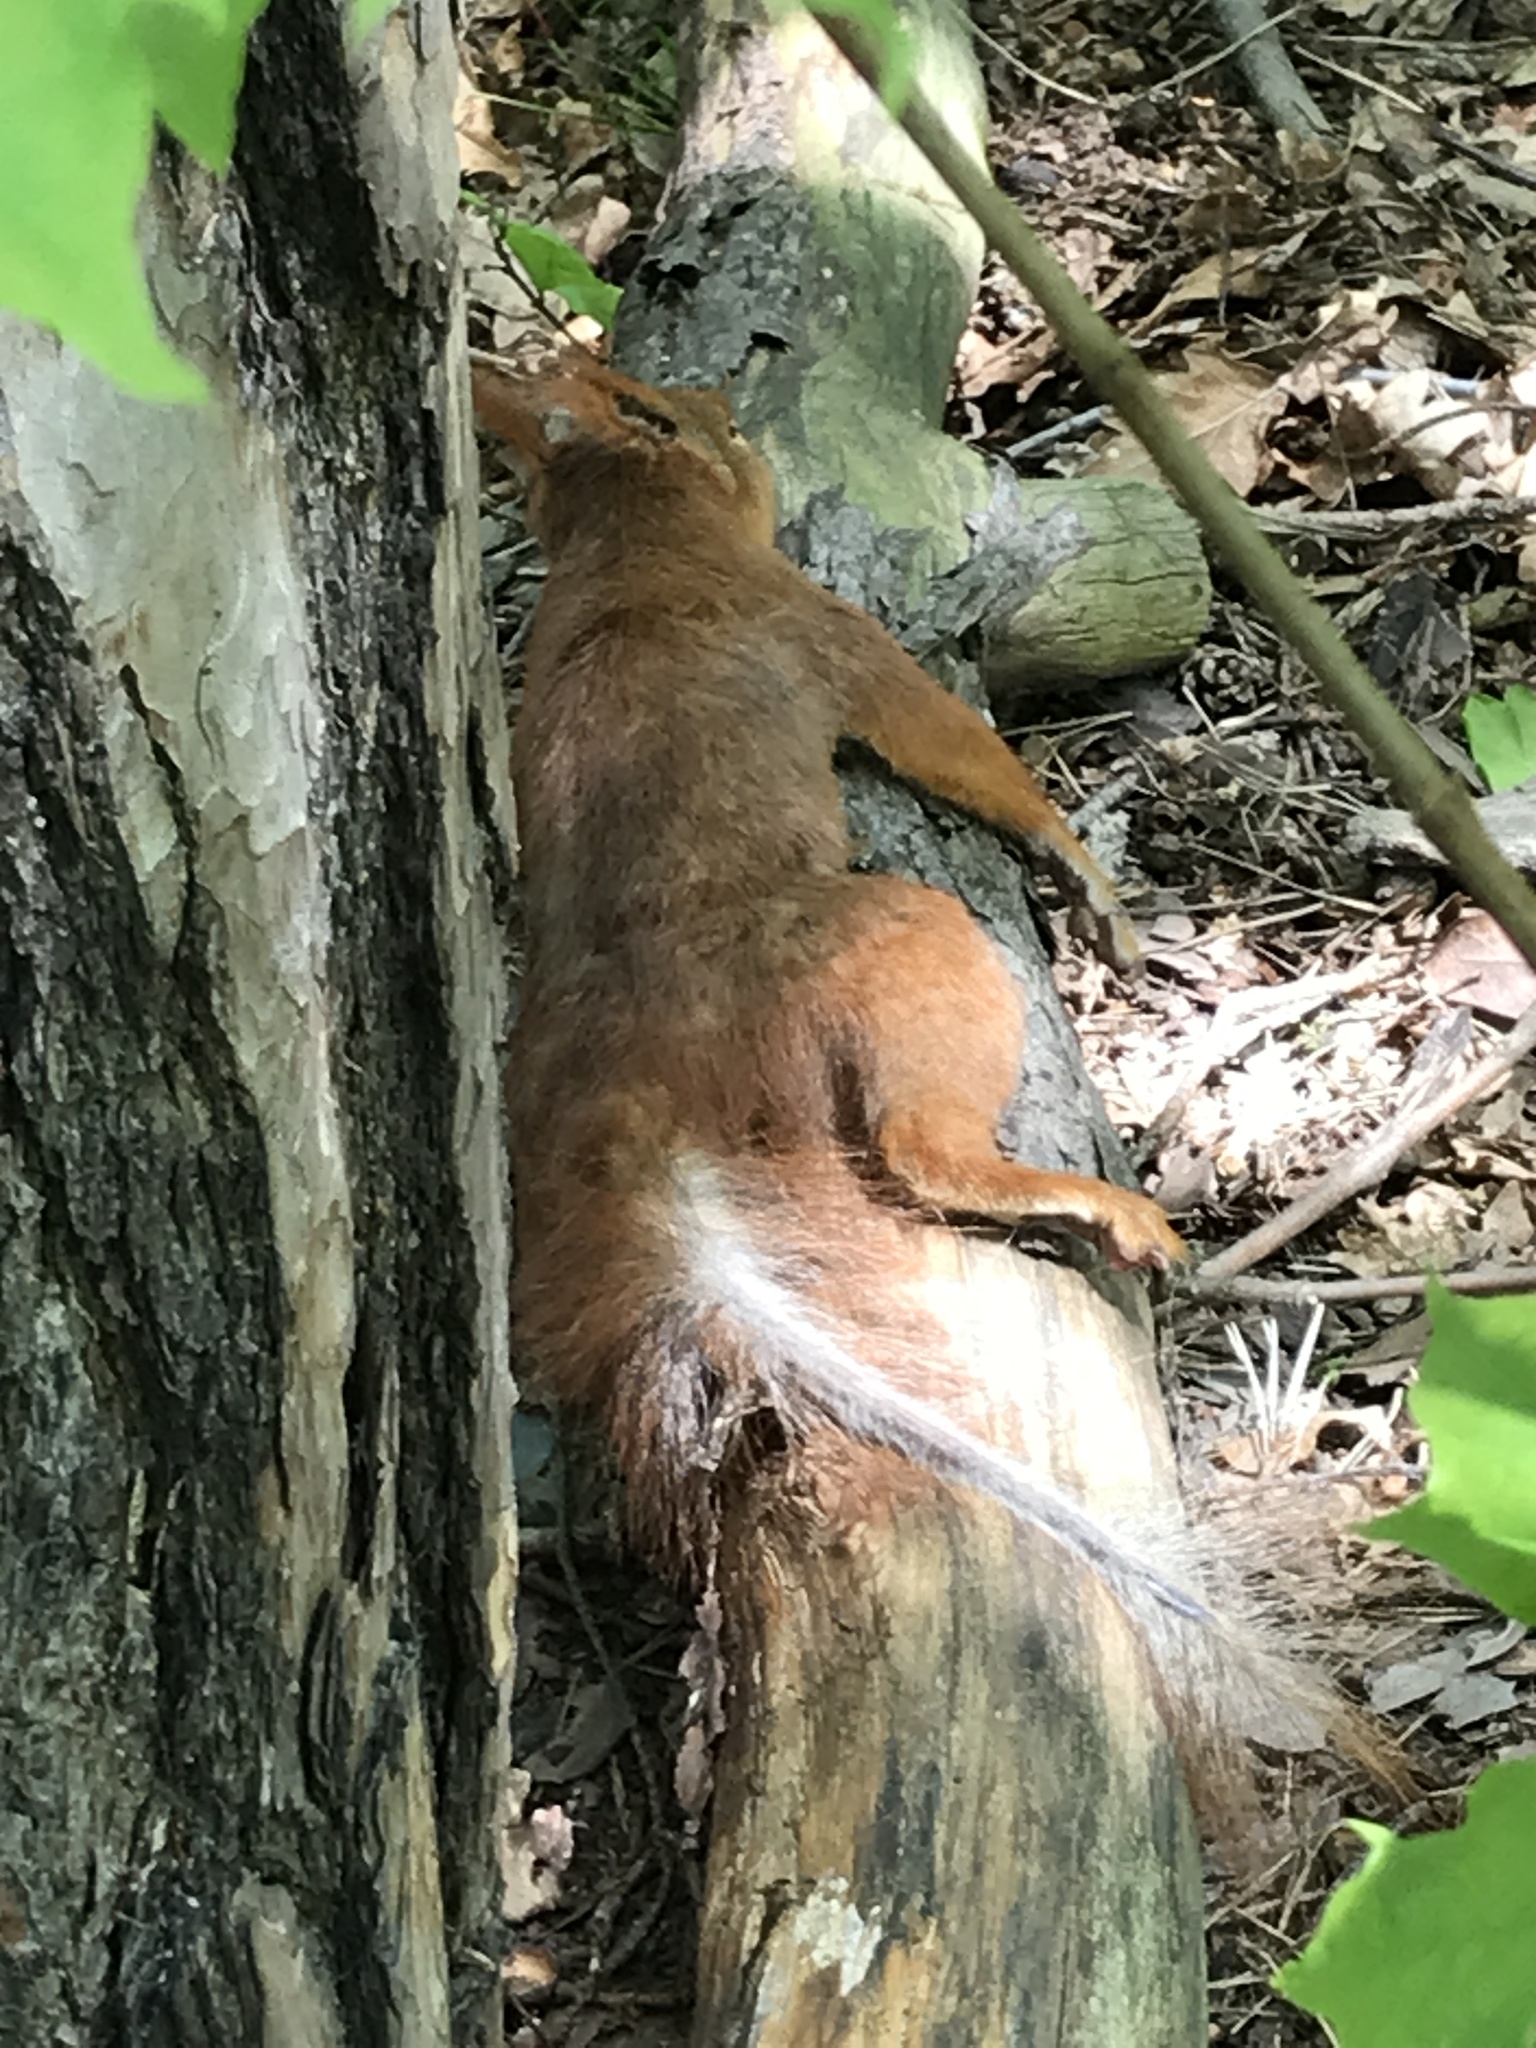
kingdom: Animalia
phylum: Chordata
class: Mammalia
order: Rodentia
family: Sciuridae
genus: Sciurus
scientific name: Sciurus vulgaris
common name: Eurasian red squirrel
